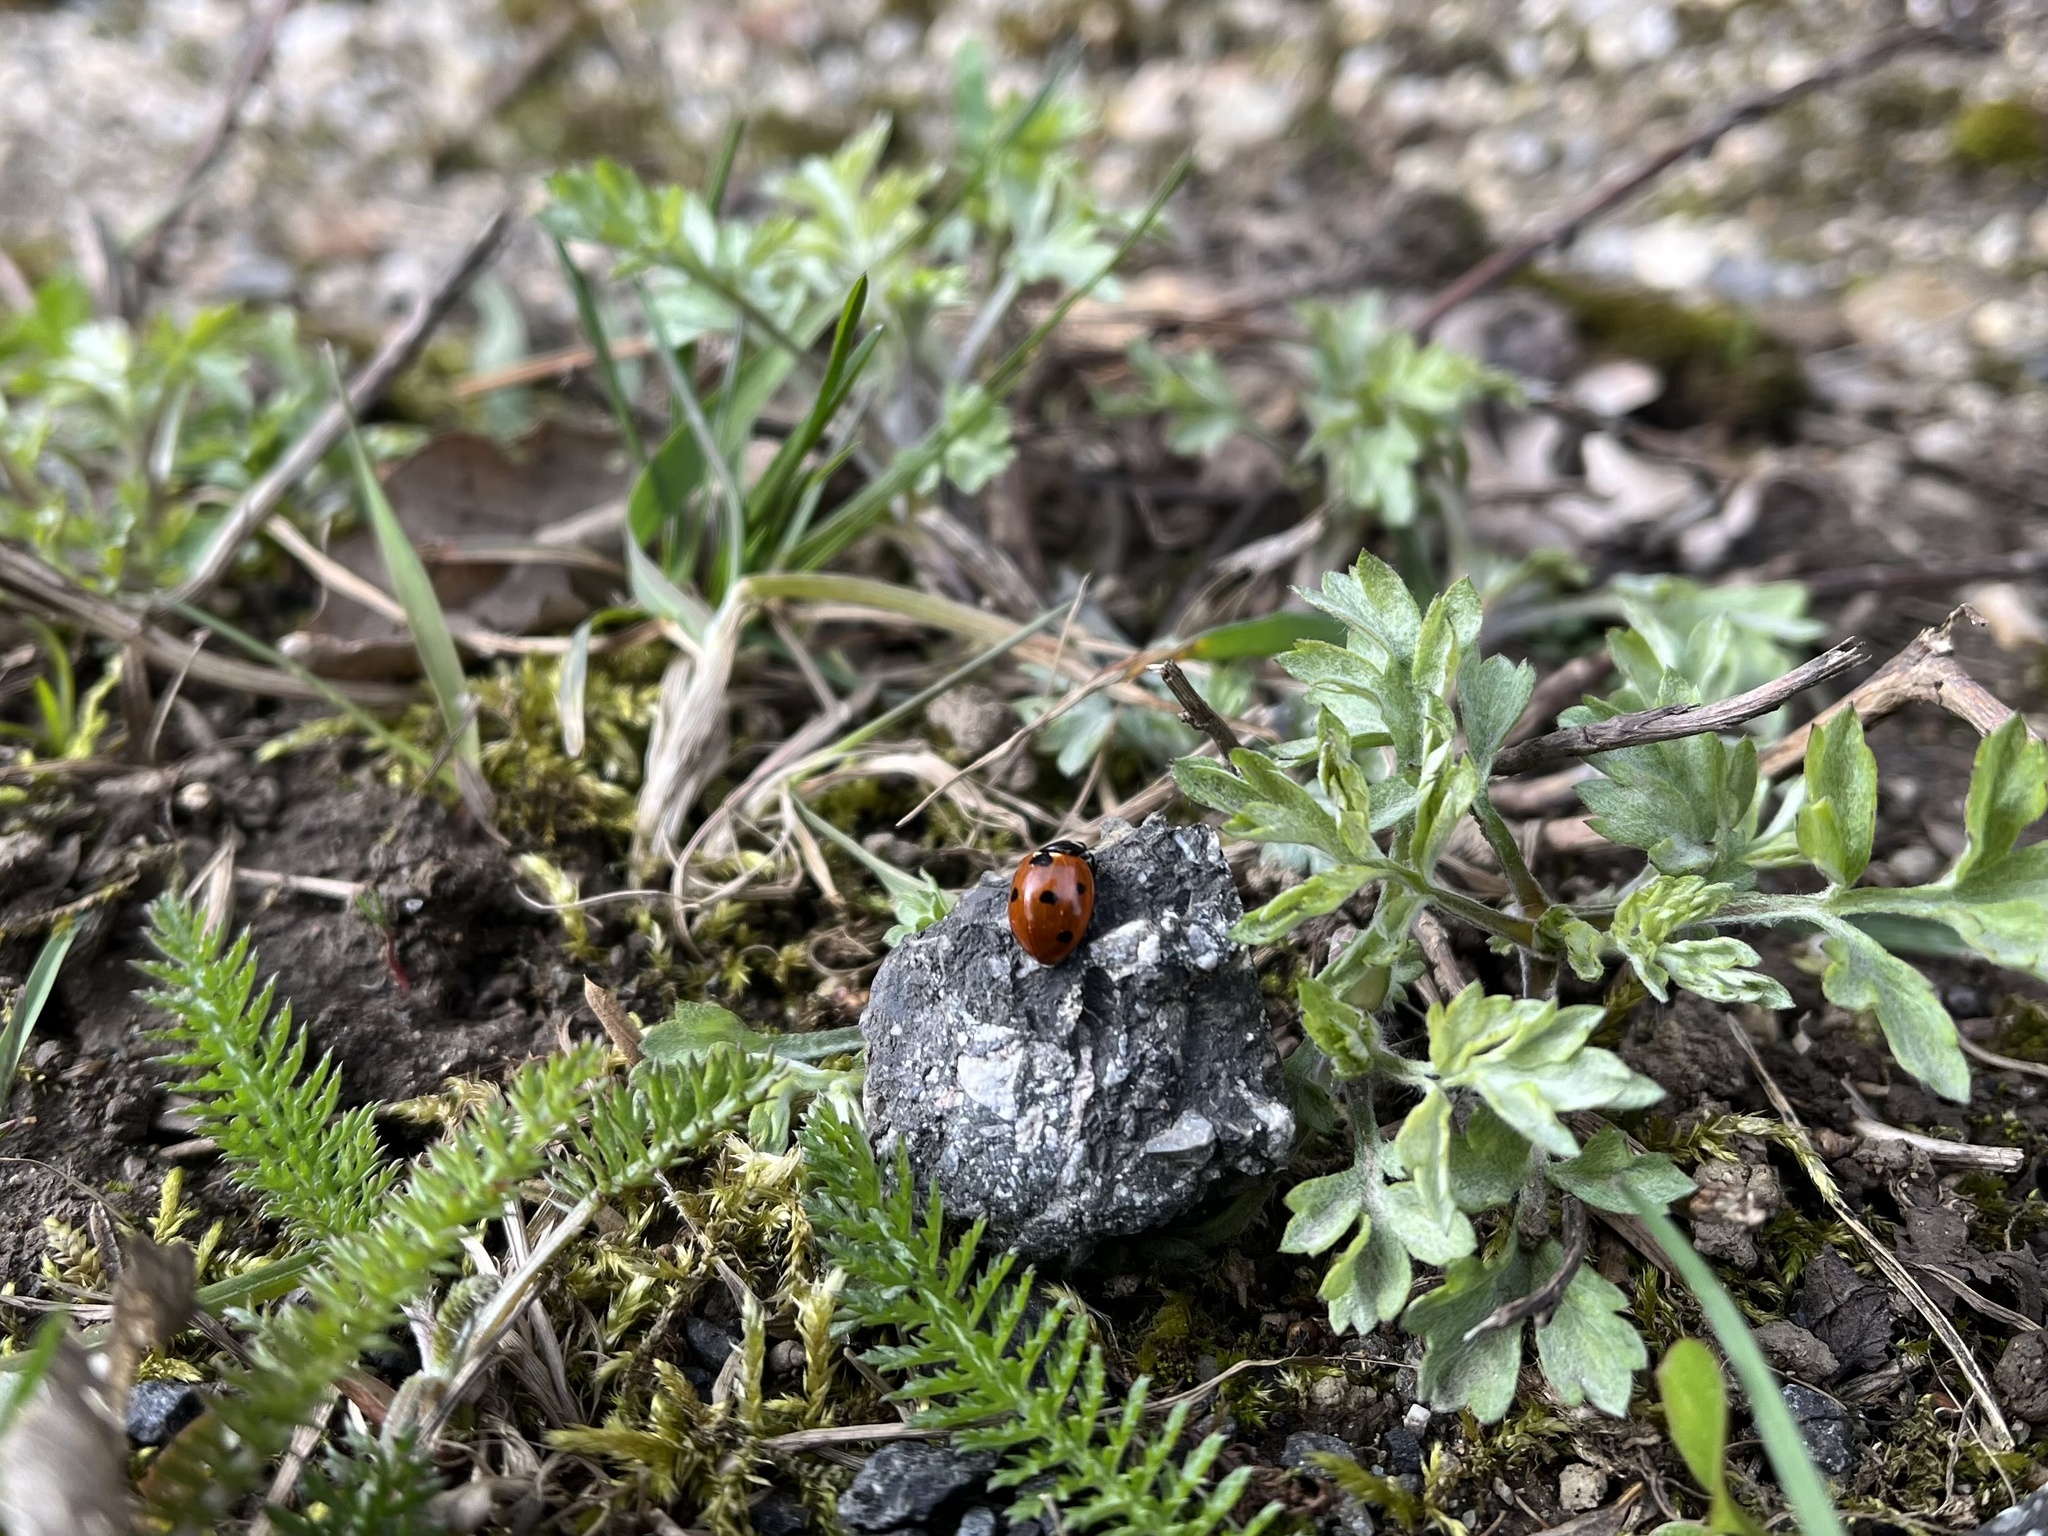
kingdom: Animalia
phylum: Arthropoda
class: Insecta
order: Coleoptera
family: Coccinellidae
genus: Coccinella
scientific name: Coccinella septempunctata
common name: Sevenspotted lady beetle
